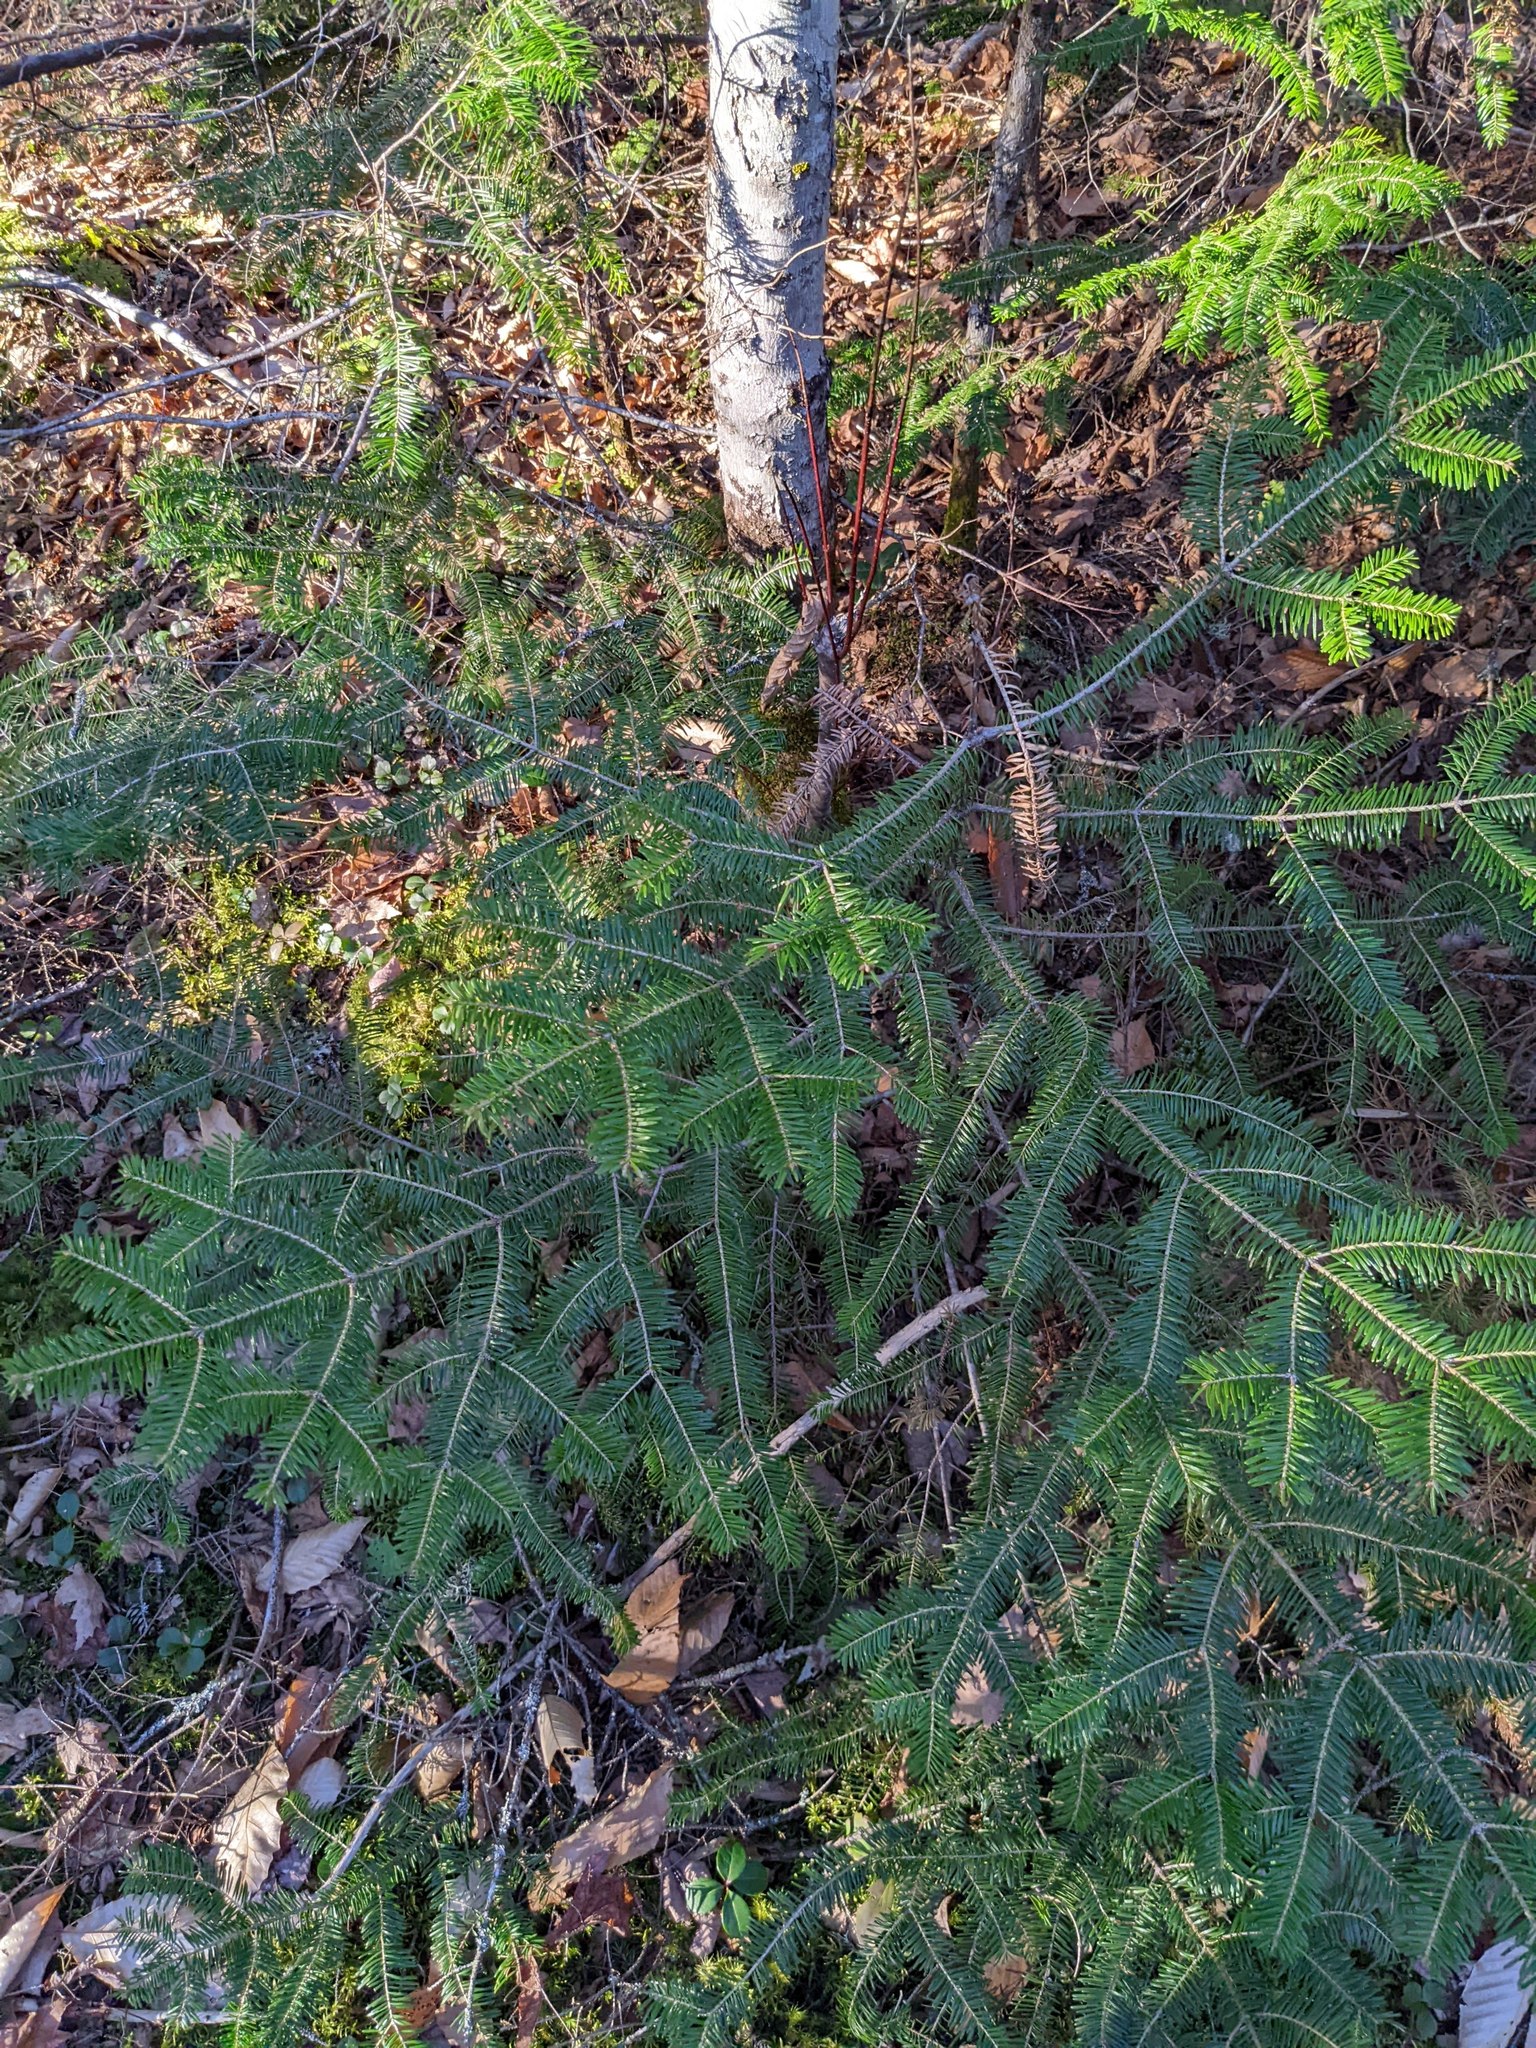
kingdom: Plantae
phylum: Tracheophyta
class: Pinopsida
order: Pinales
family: Pinaceae
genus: Abies
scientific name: Abies balsamea
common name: Balsam fir
